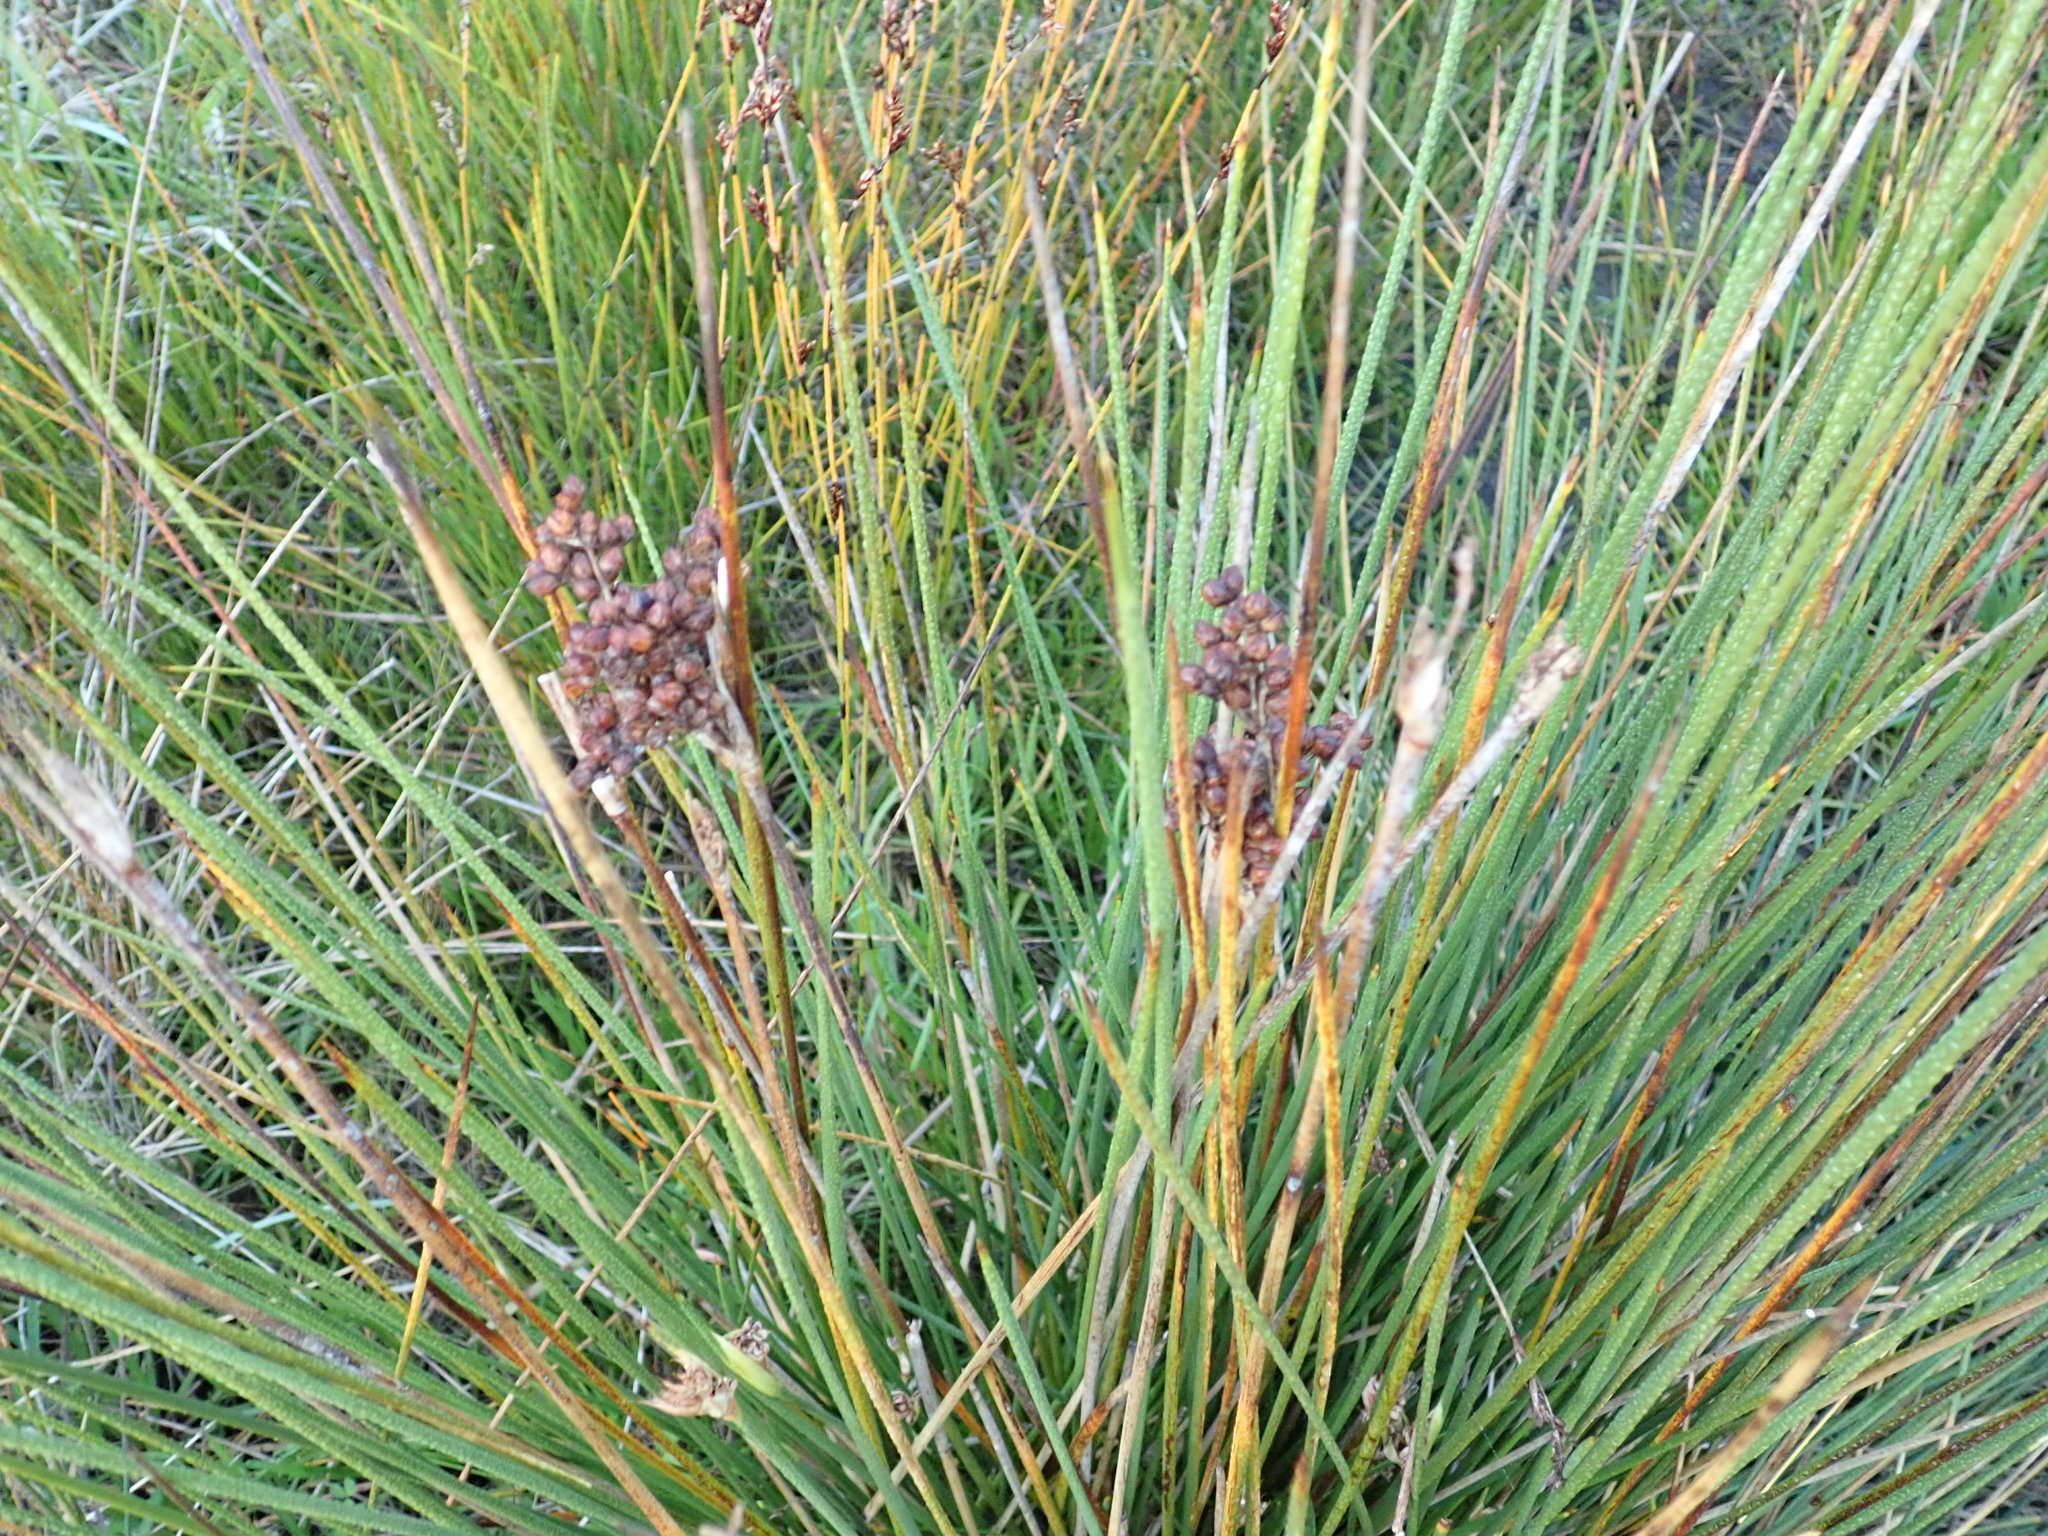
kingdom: Plantae
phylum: Tracheophyta
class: Liliopsida
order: Poales
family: Juncaceae
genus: Juncus
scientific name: Juncus acutus
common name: Sharp rush
